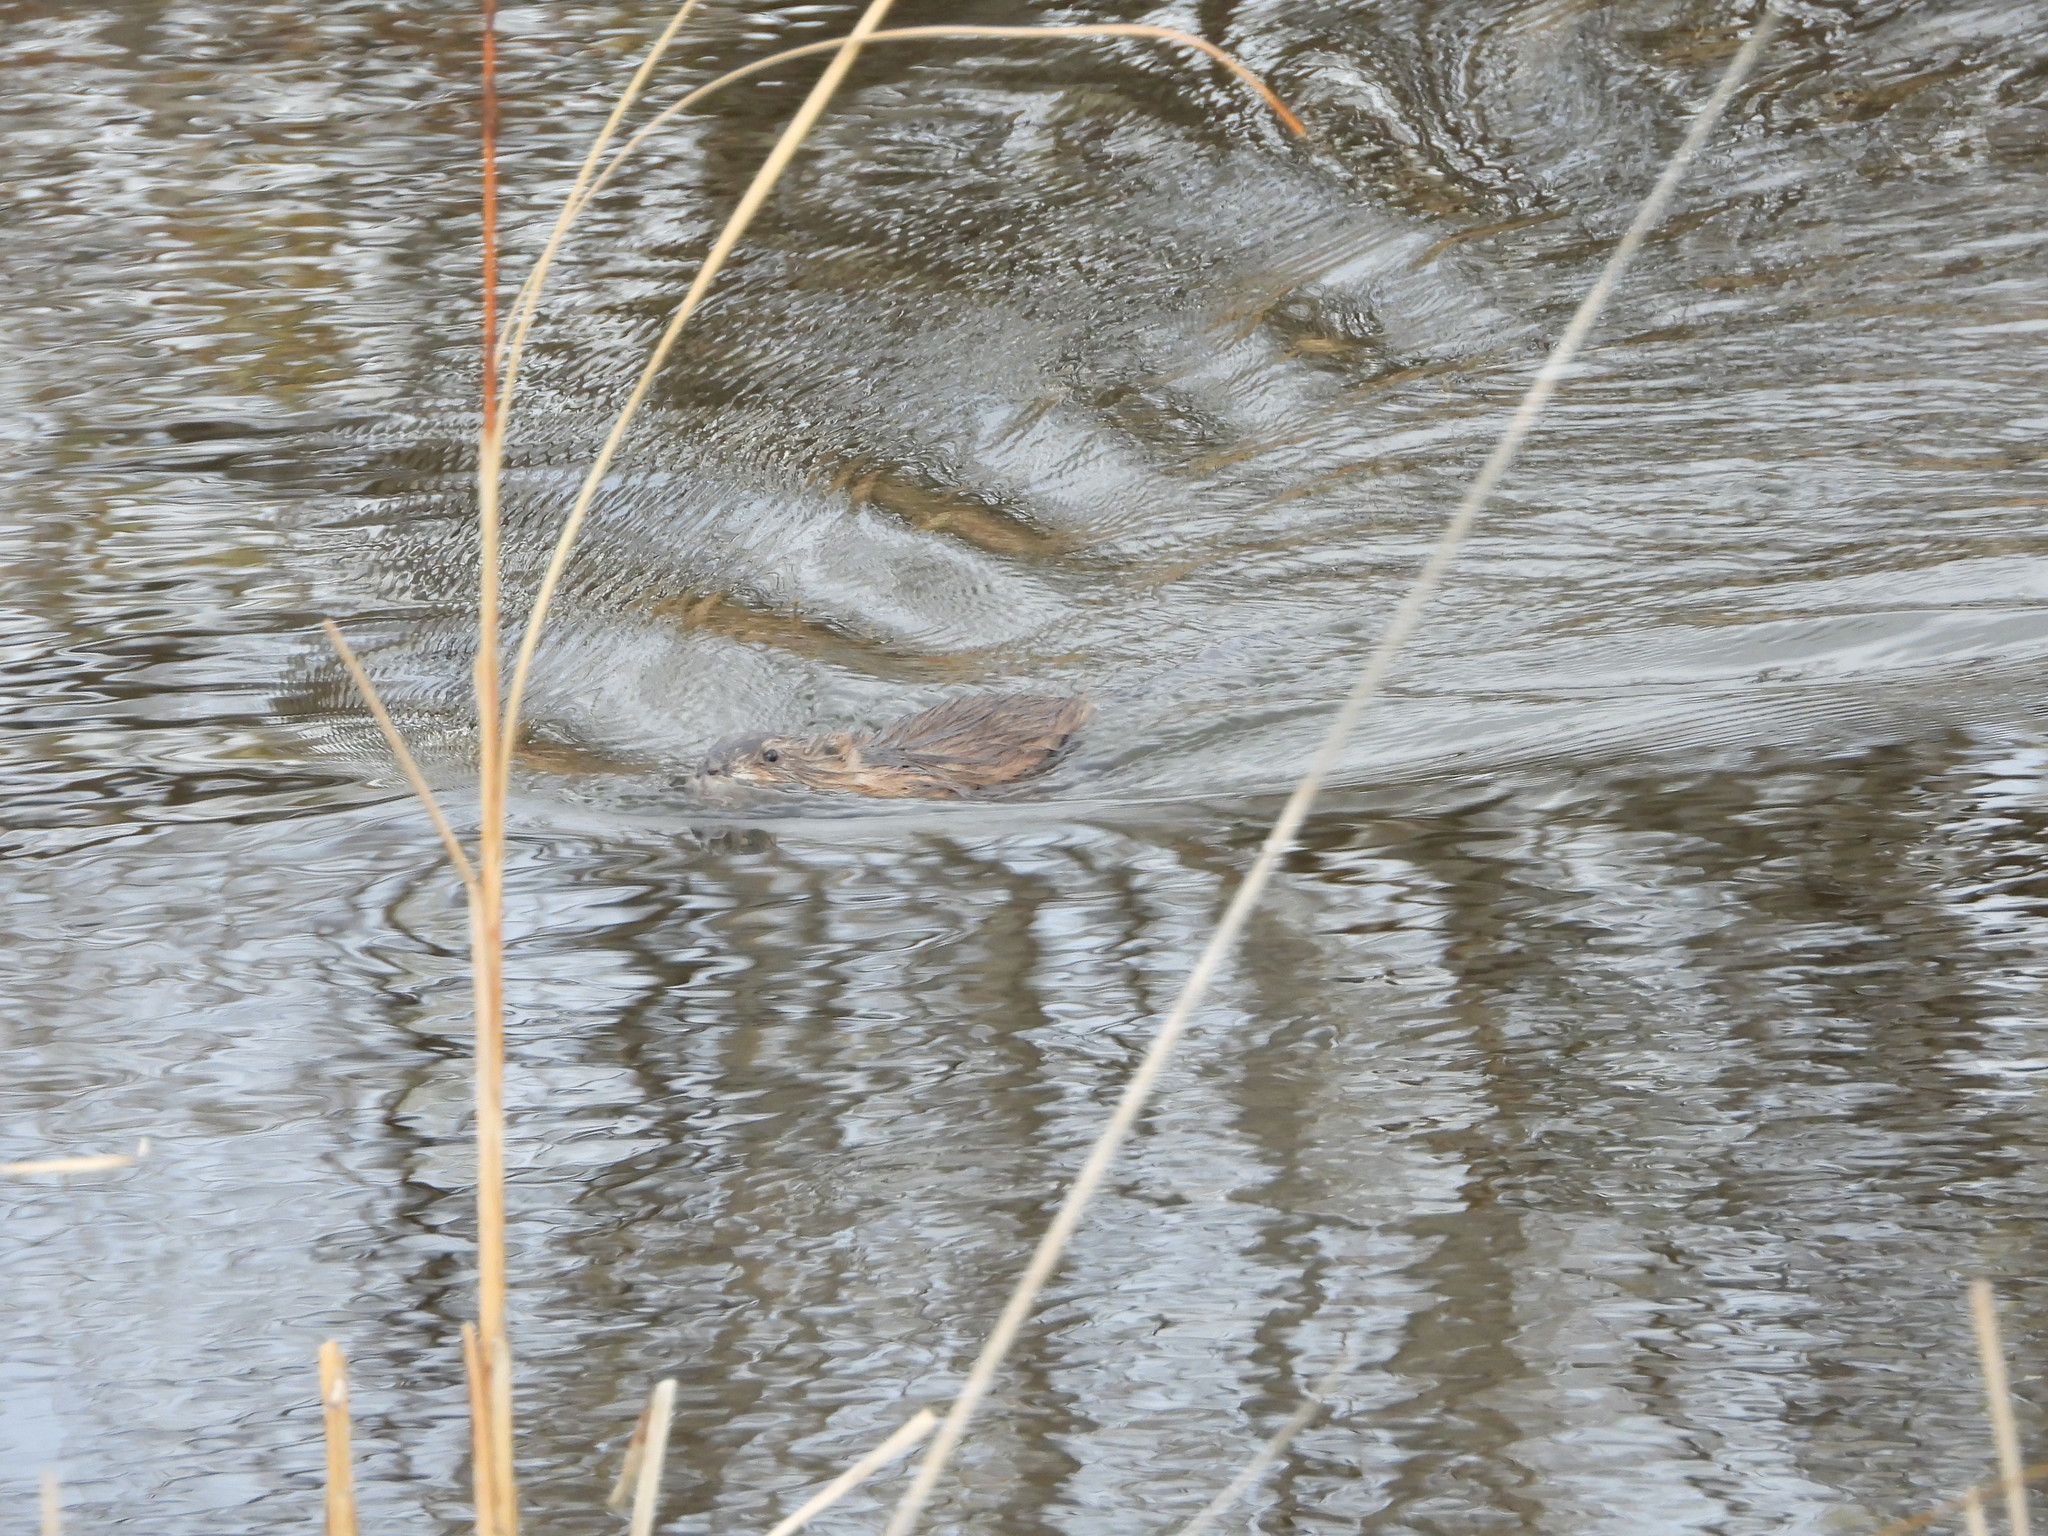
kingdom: Animalia
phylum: Chordata
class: Mammalia
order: Rodentia
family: Cricetidae
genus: Ondatra
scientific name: Ondatra zibethicus
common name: Muskrat
